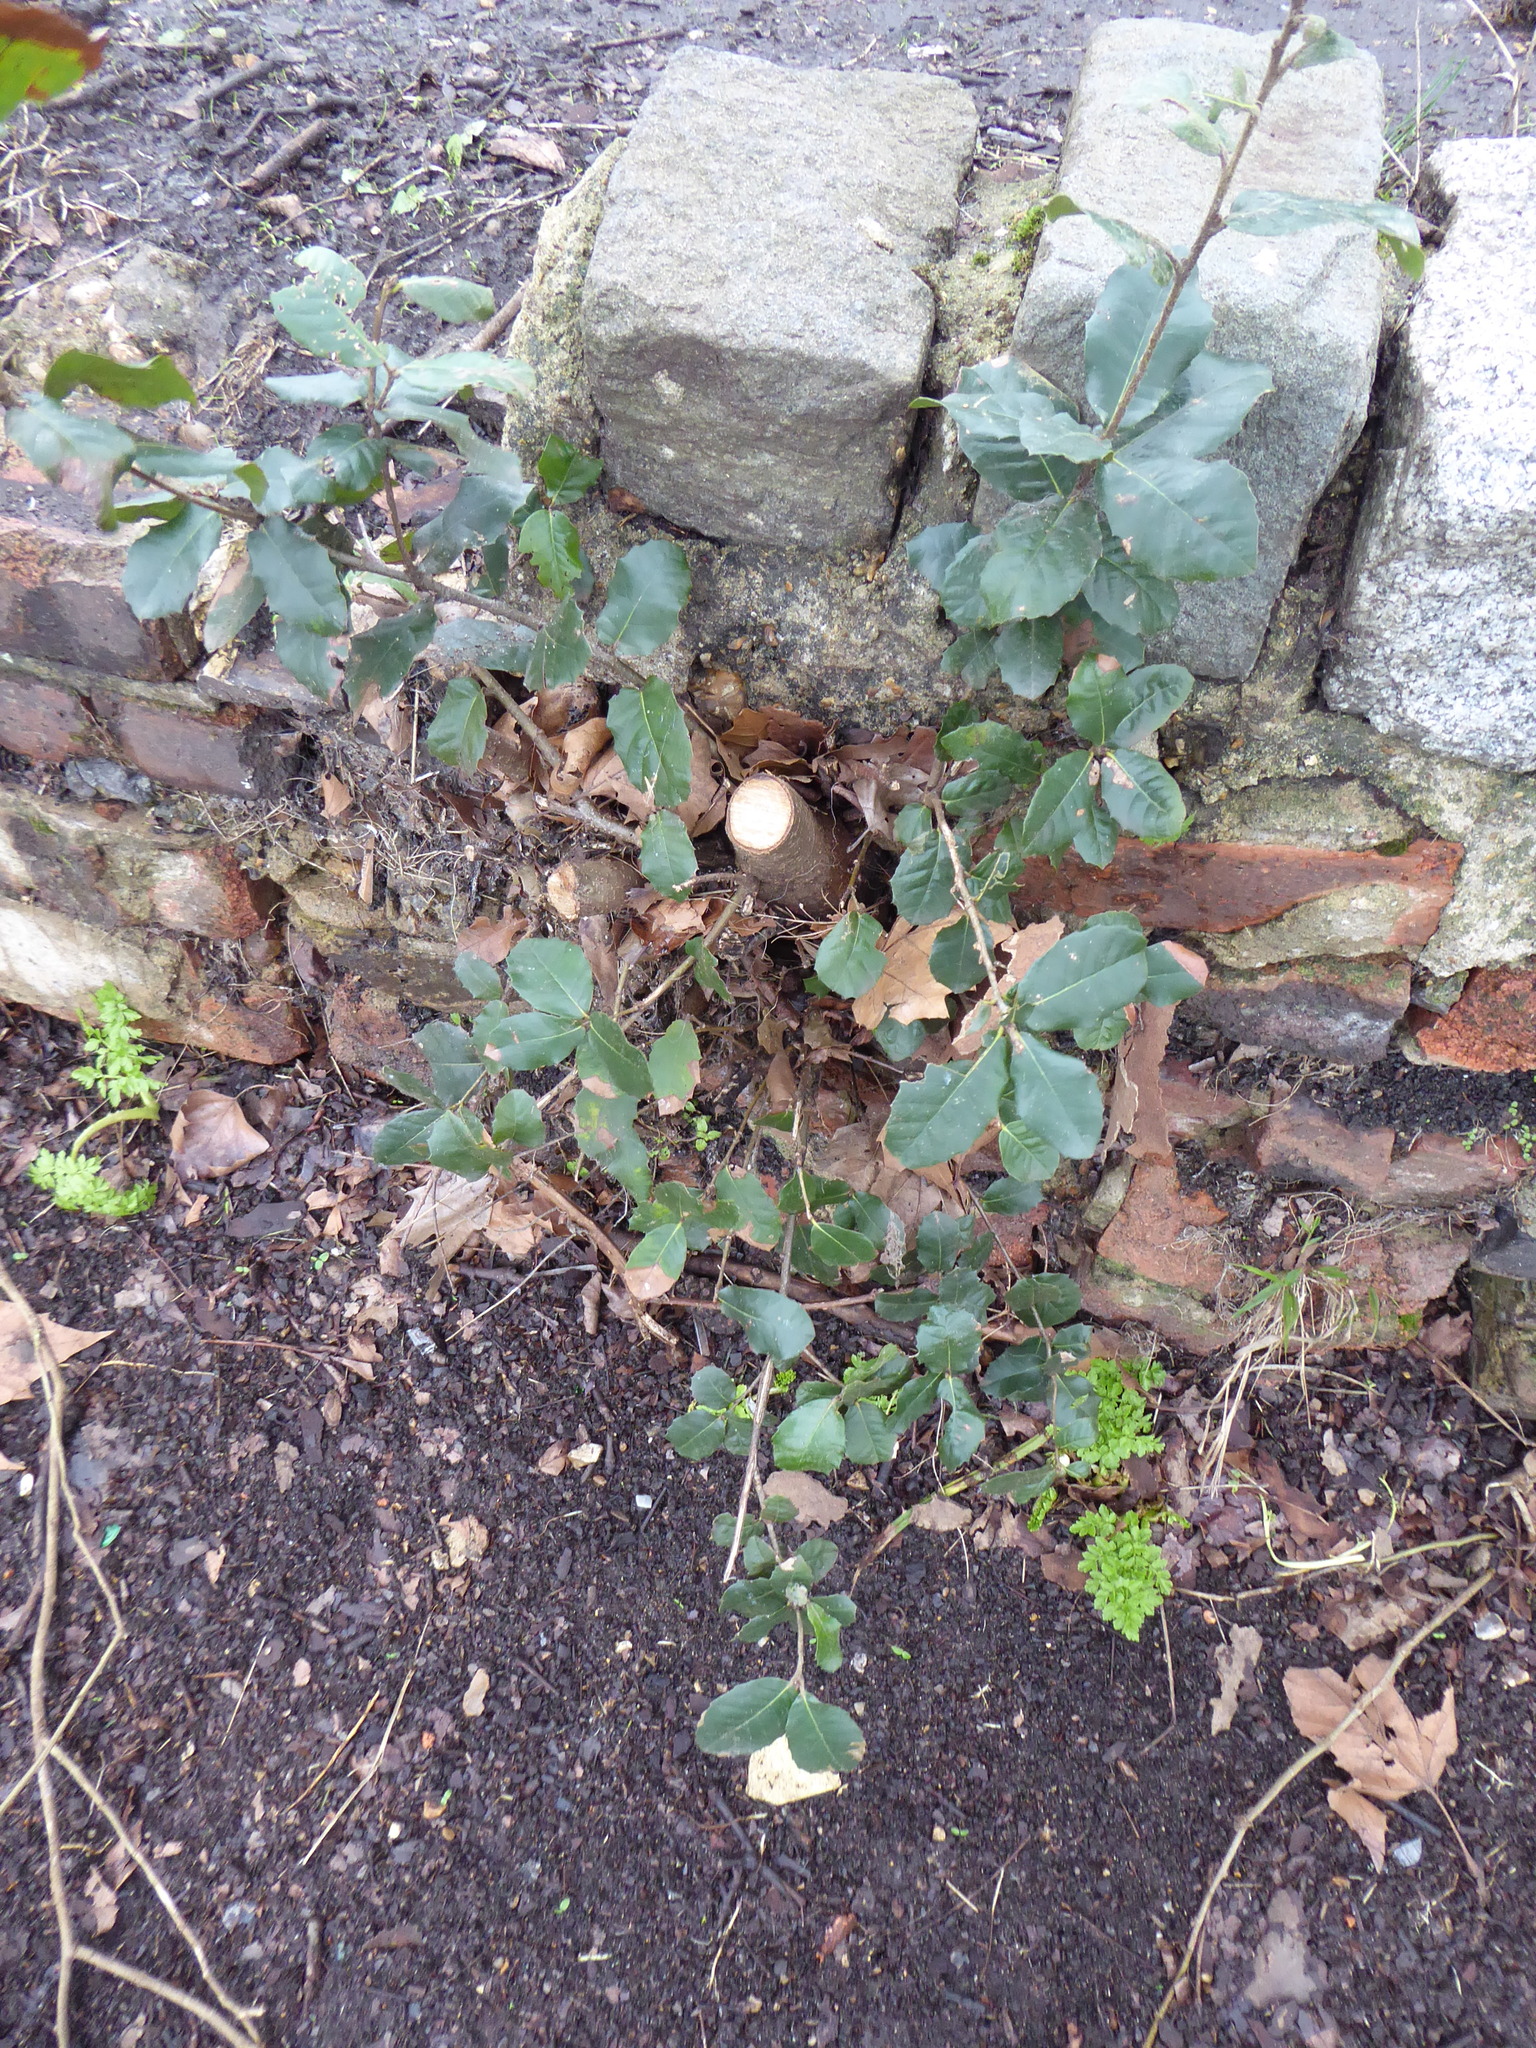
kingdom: Plantae
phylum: Tracheophyta
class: Magnoliopsida
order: Fagales
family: Fagaceae
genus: Quercus
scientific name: Quercus ilex
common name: Evergreen oak
